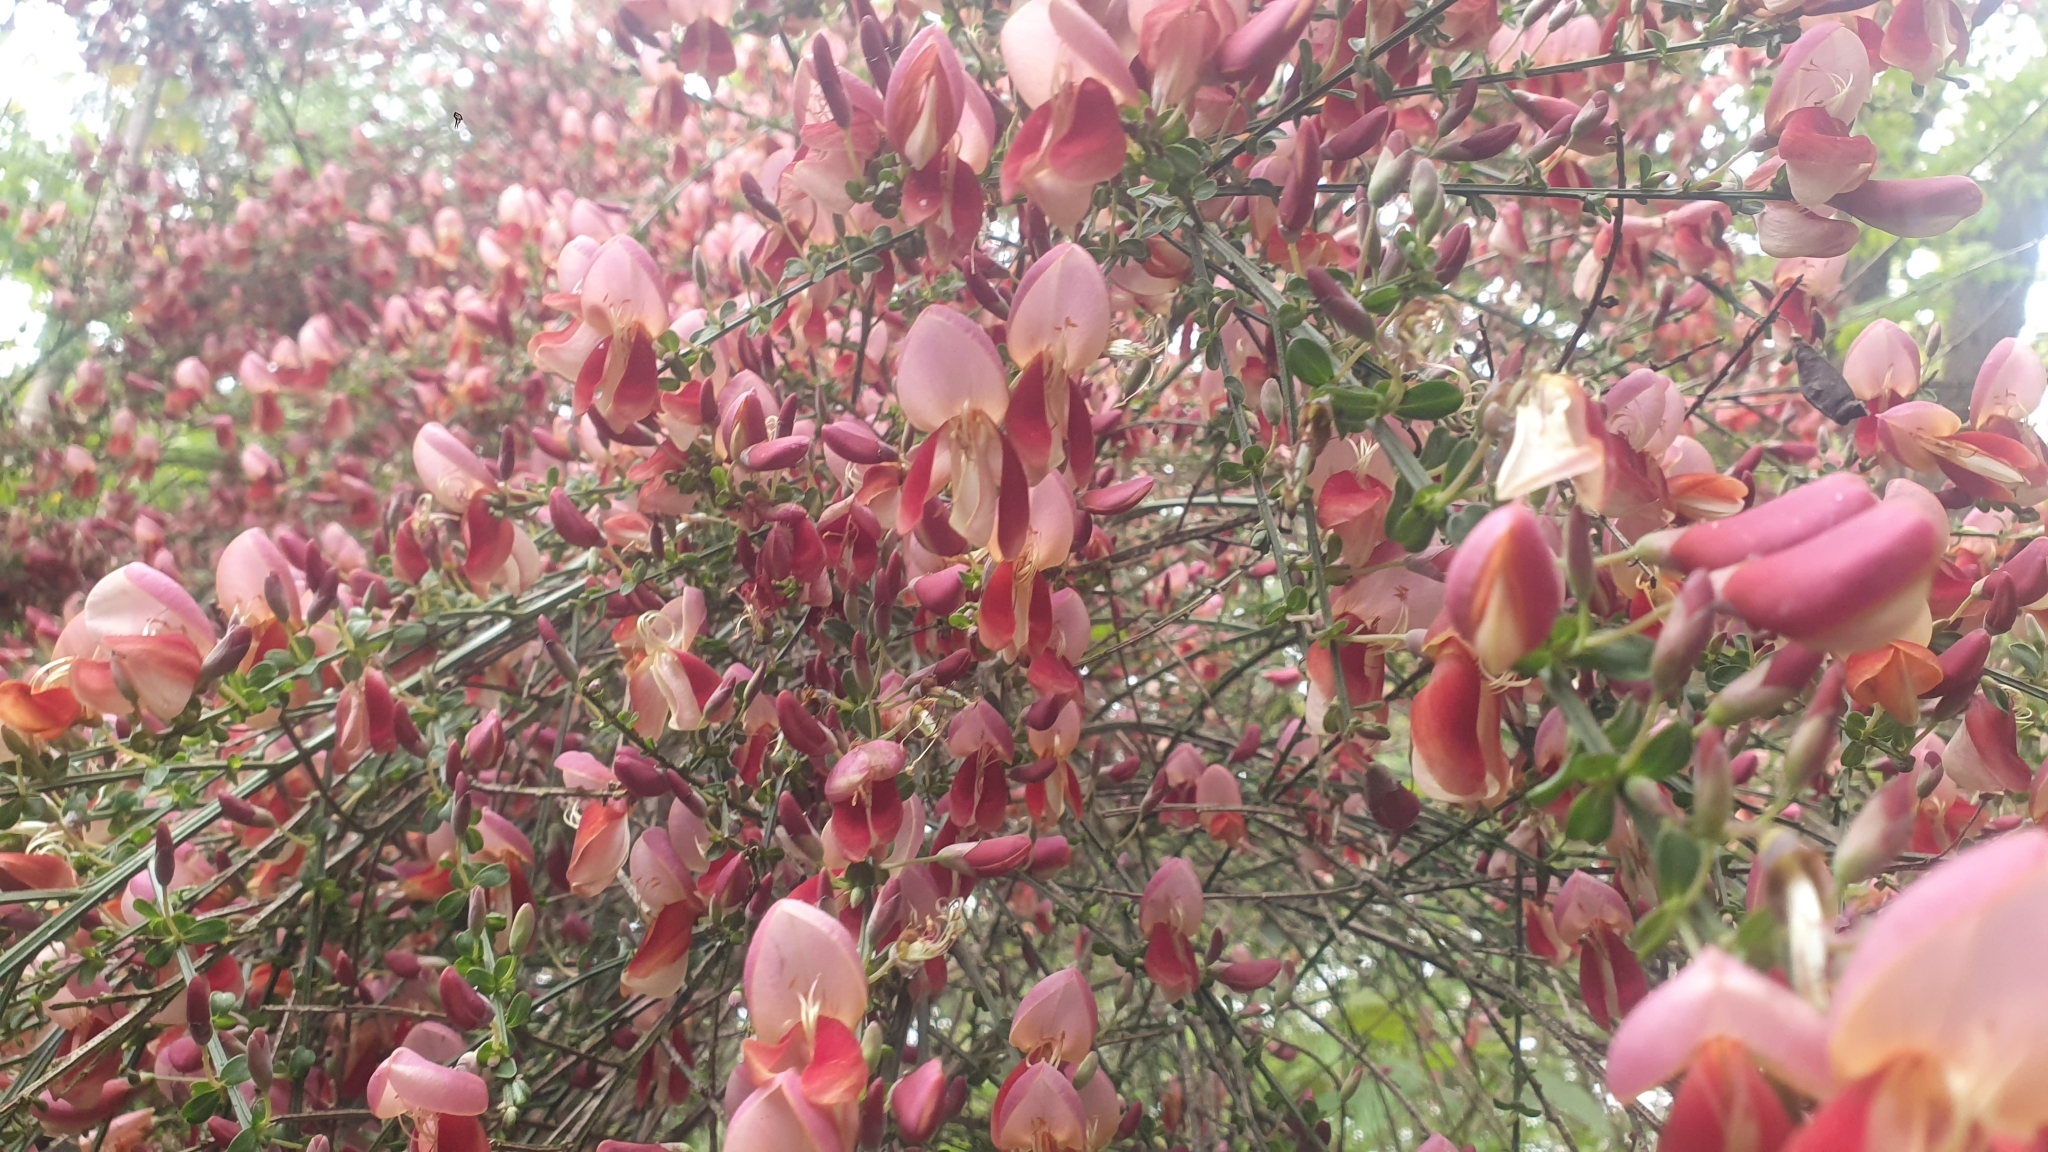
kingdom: Plantae
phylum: Tracheophyta
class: Magnoliopsida
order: Fabales
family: Fabaceae
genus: Cytisus
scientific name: Cytisus scoparius
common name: Scotch broom
